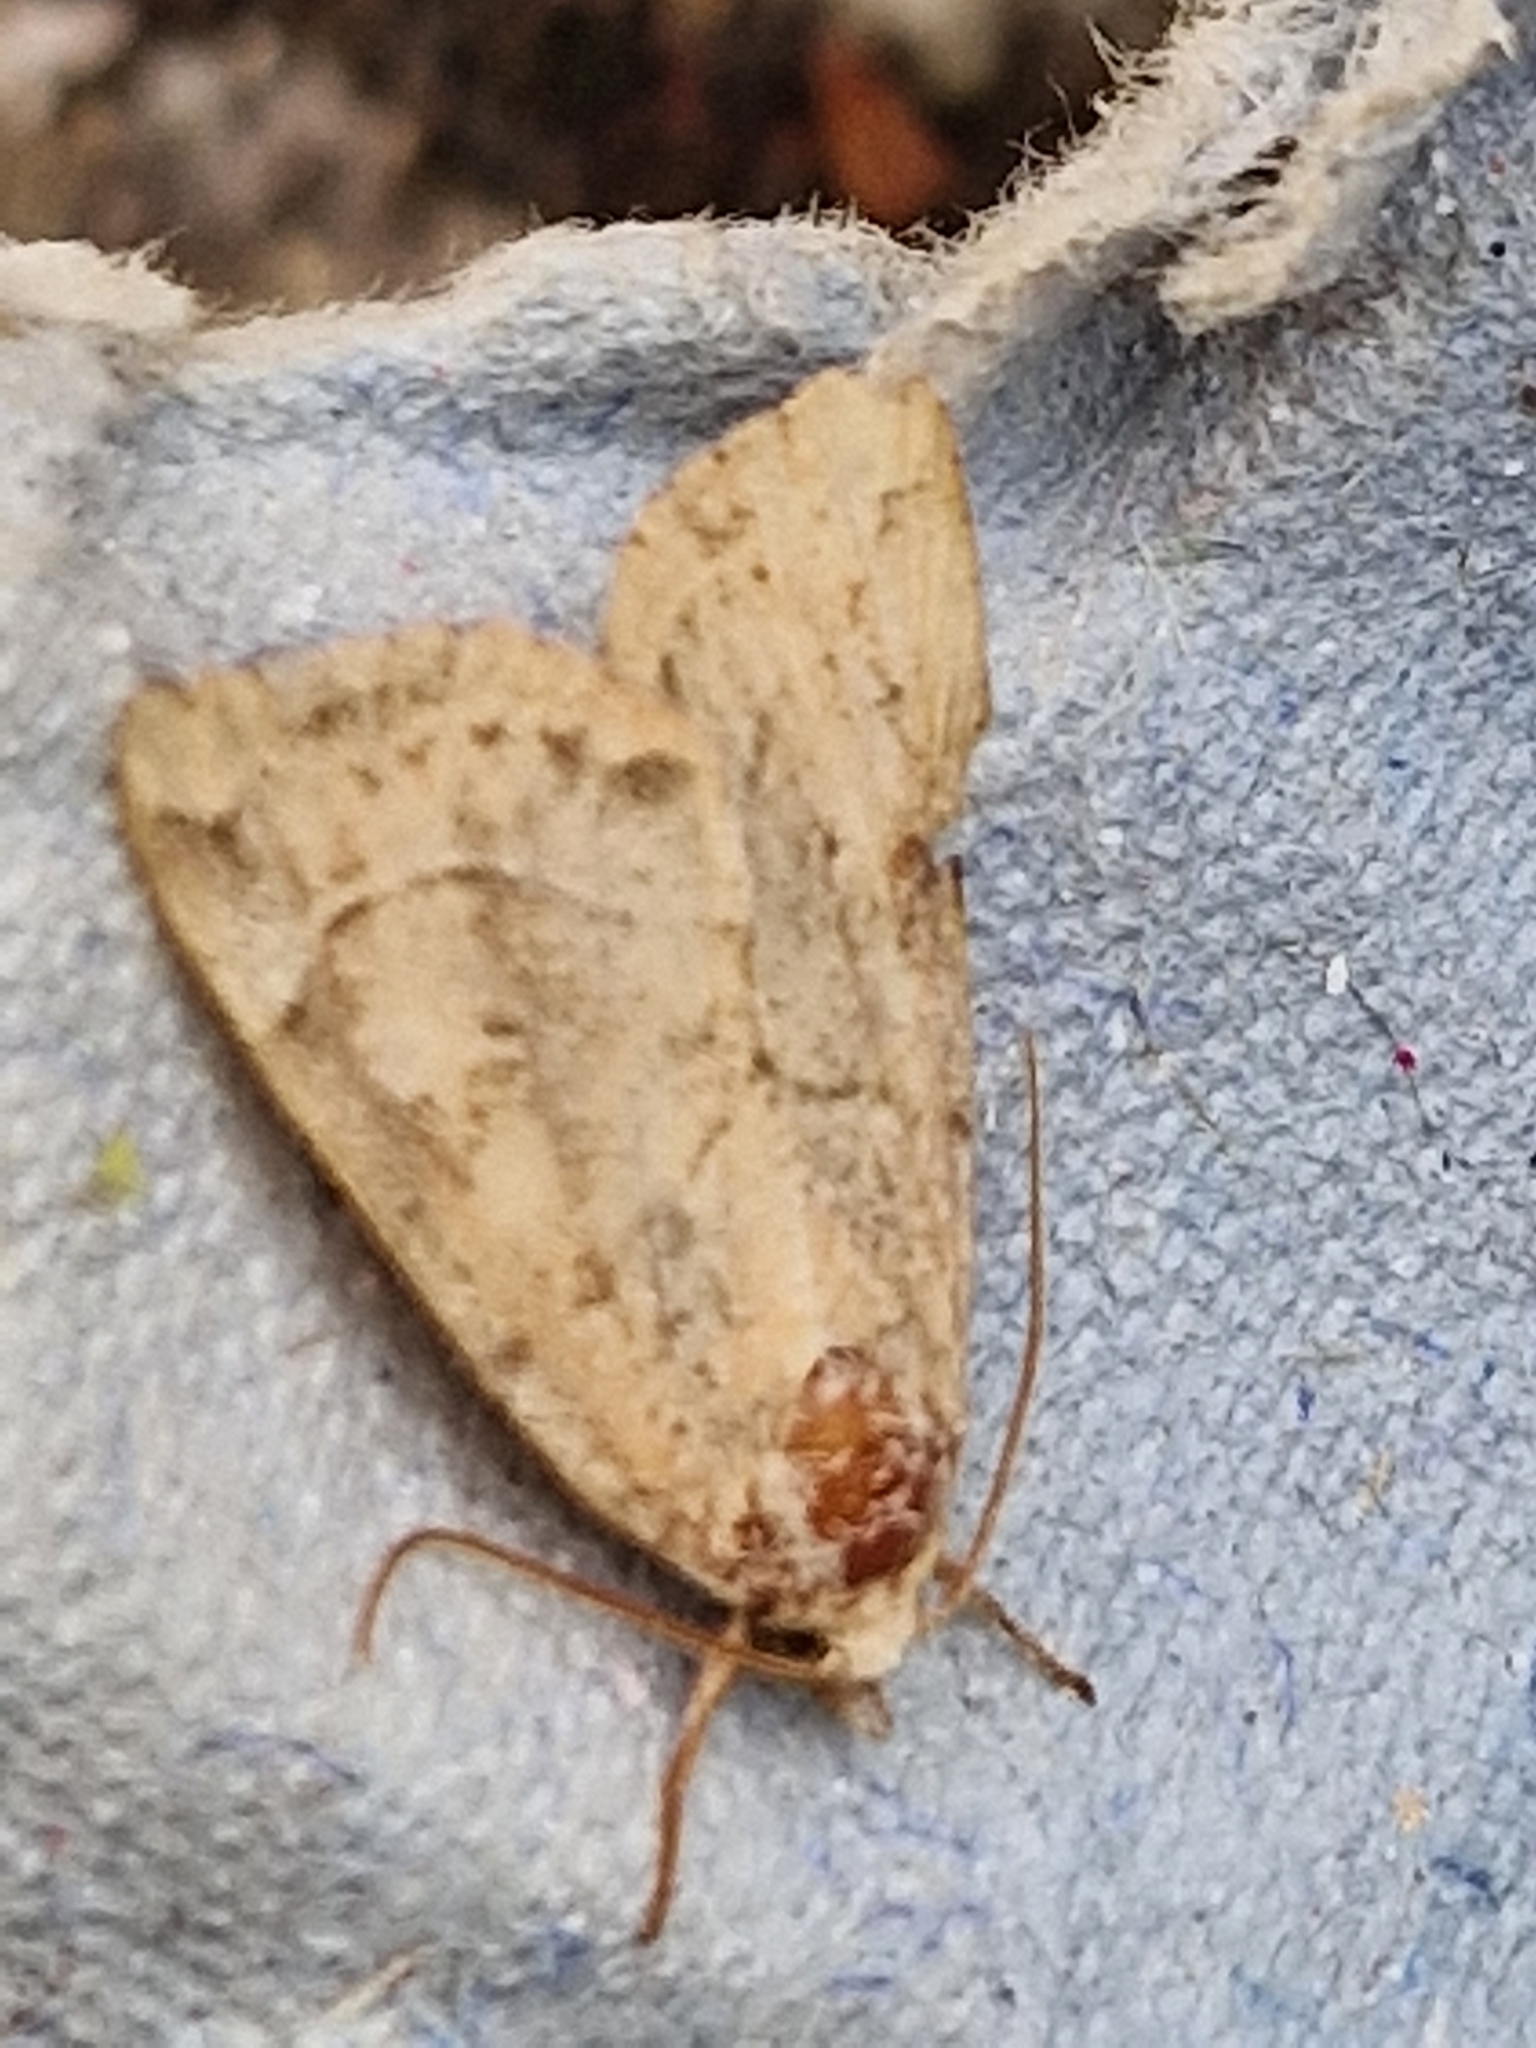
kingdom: Animalia
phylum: Arthropoda
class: Insecta
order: Lepidoptera
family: Noctuidae
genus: Cosmia
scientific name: Cosmia trapezina
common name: Dun-bar
